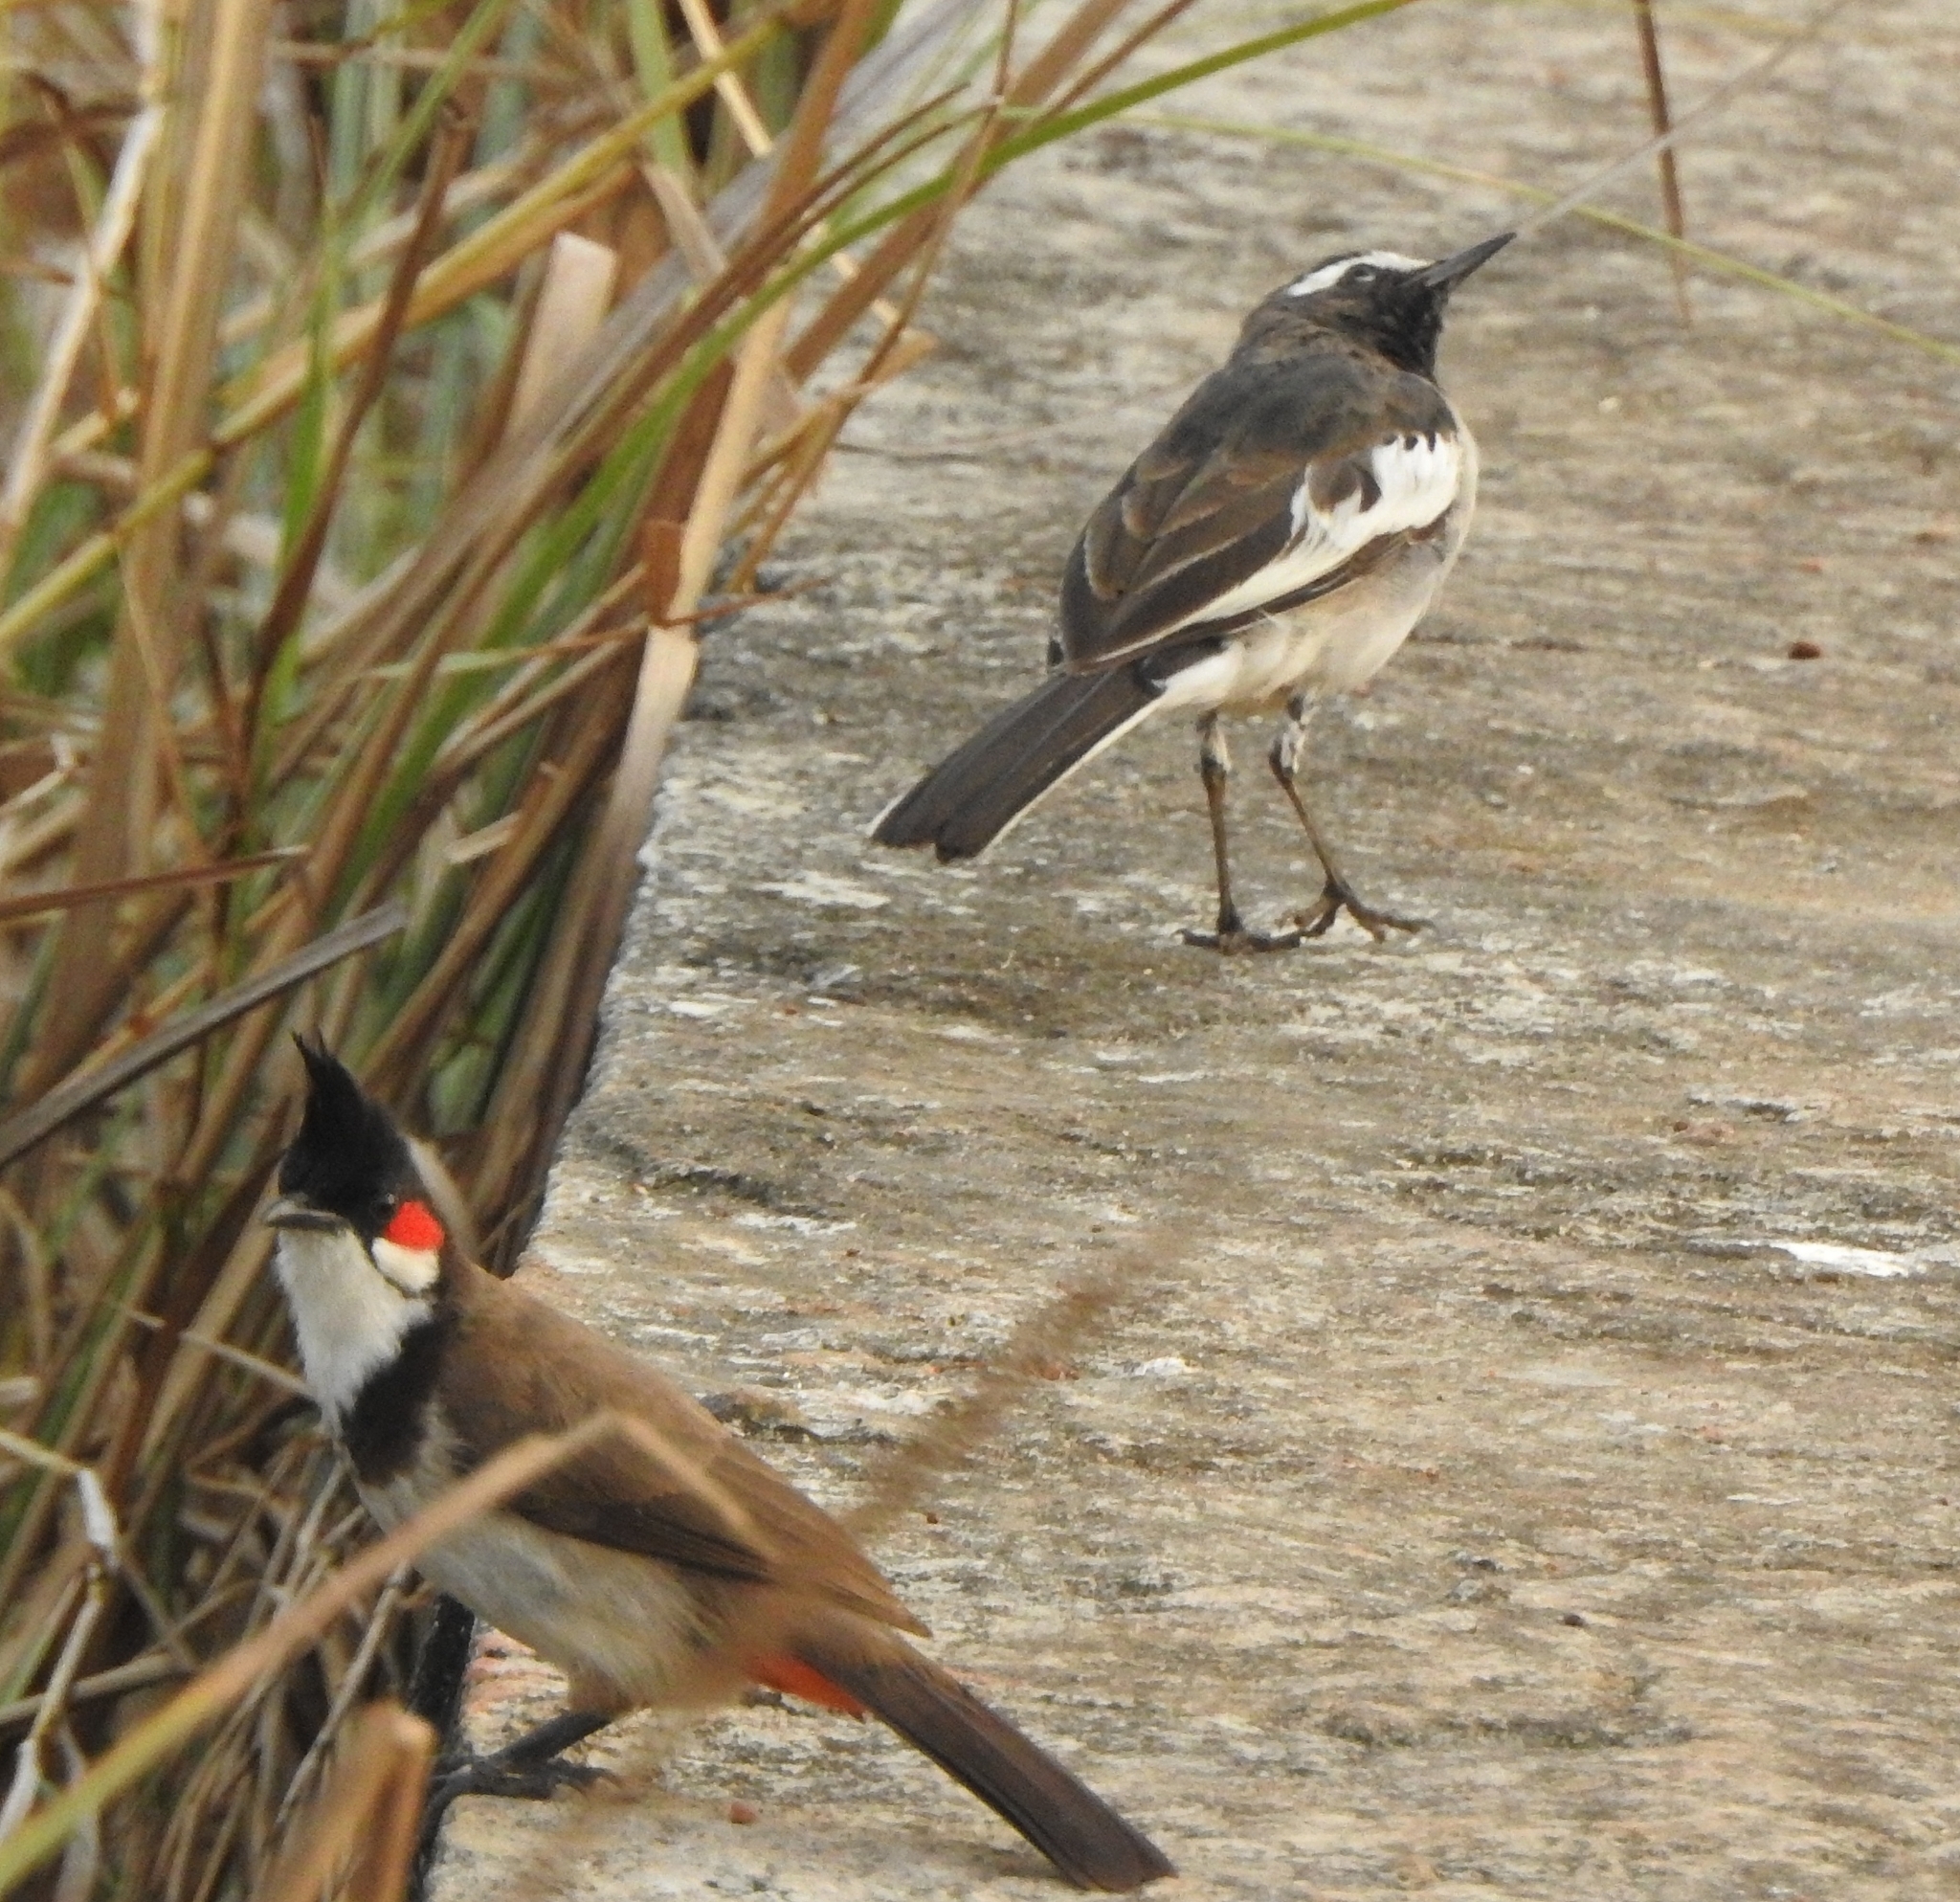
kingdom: Animalia
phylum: Chordata
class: Aves
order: Passeriformes
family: Pycnonotidae
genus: Pycnonotus
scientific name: Pycnonotus jocosus
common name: Red-whiskered bulbul
